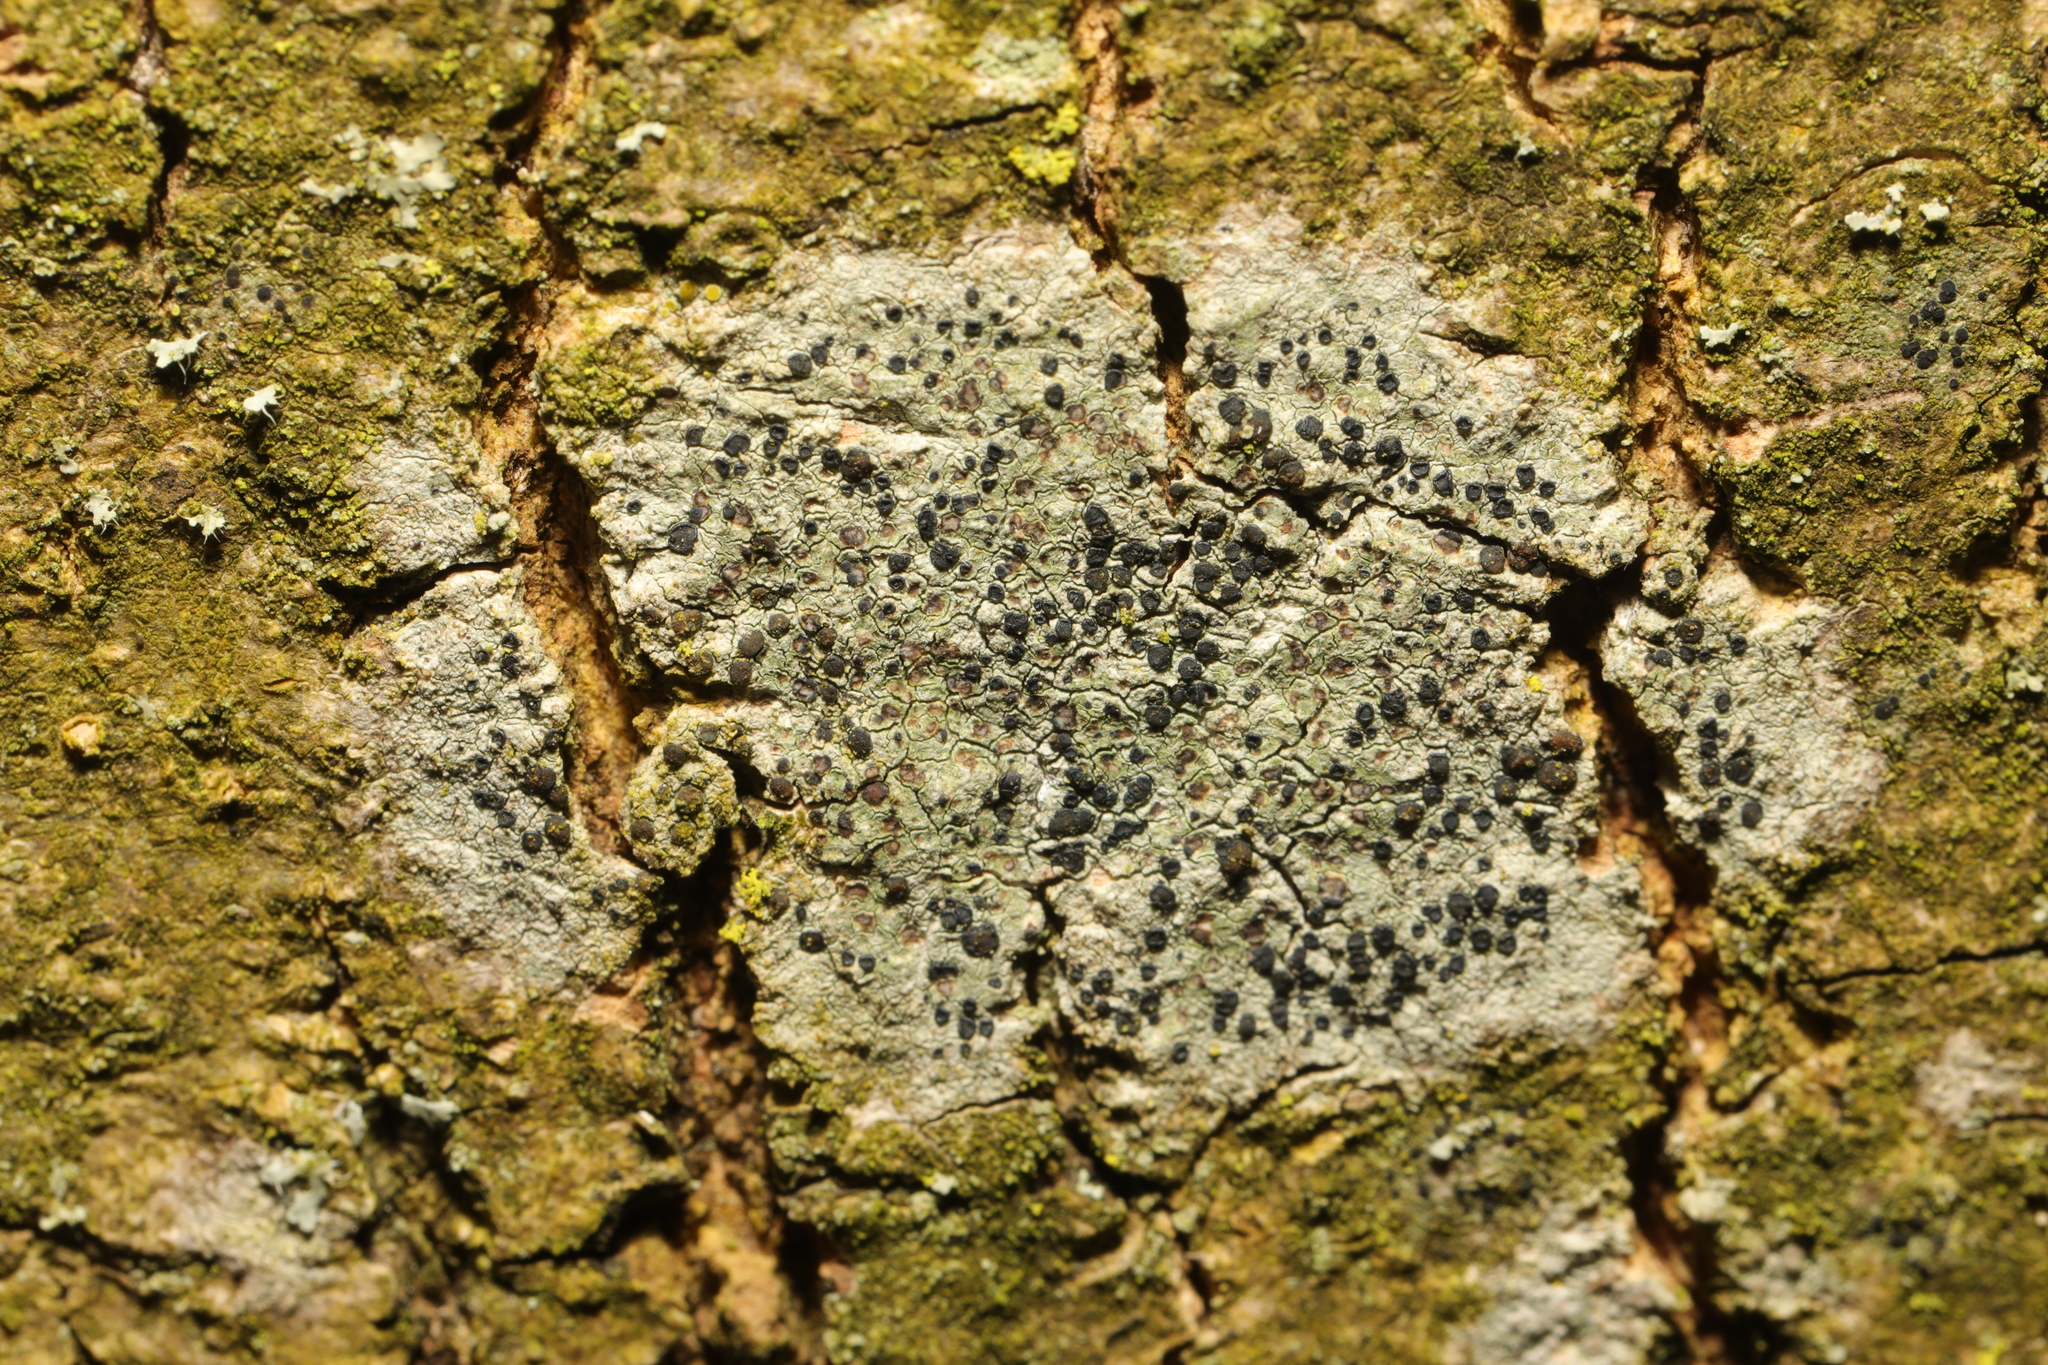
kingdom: Fungi
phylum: Ascomycota
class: Lecanoromycetes
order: Lecanorales
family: Lecanoraceae
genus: Lecidella
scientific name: Lecidella elaeochroma
